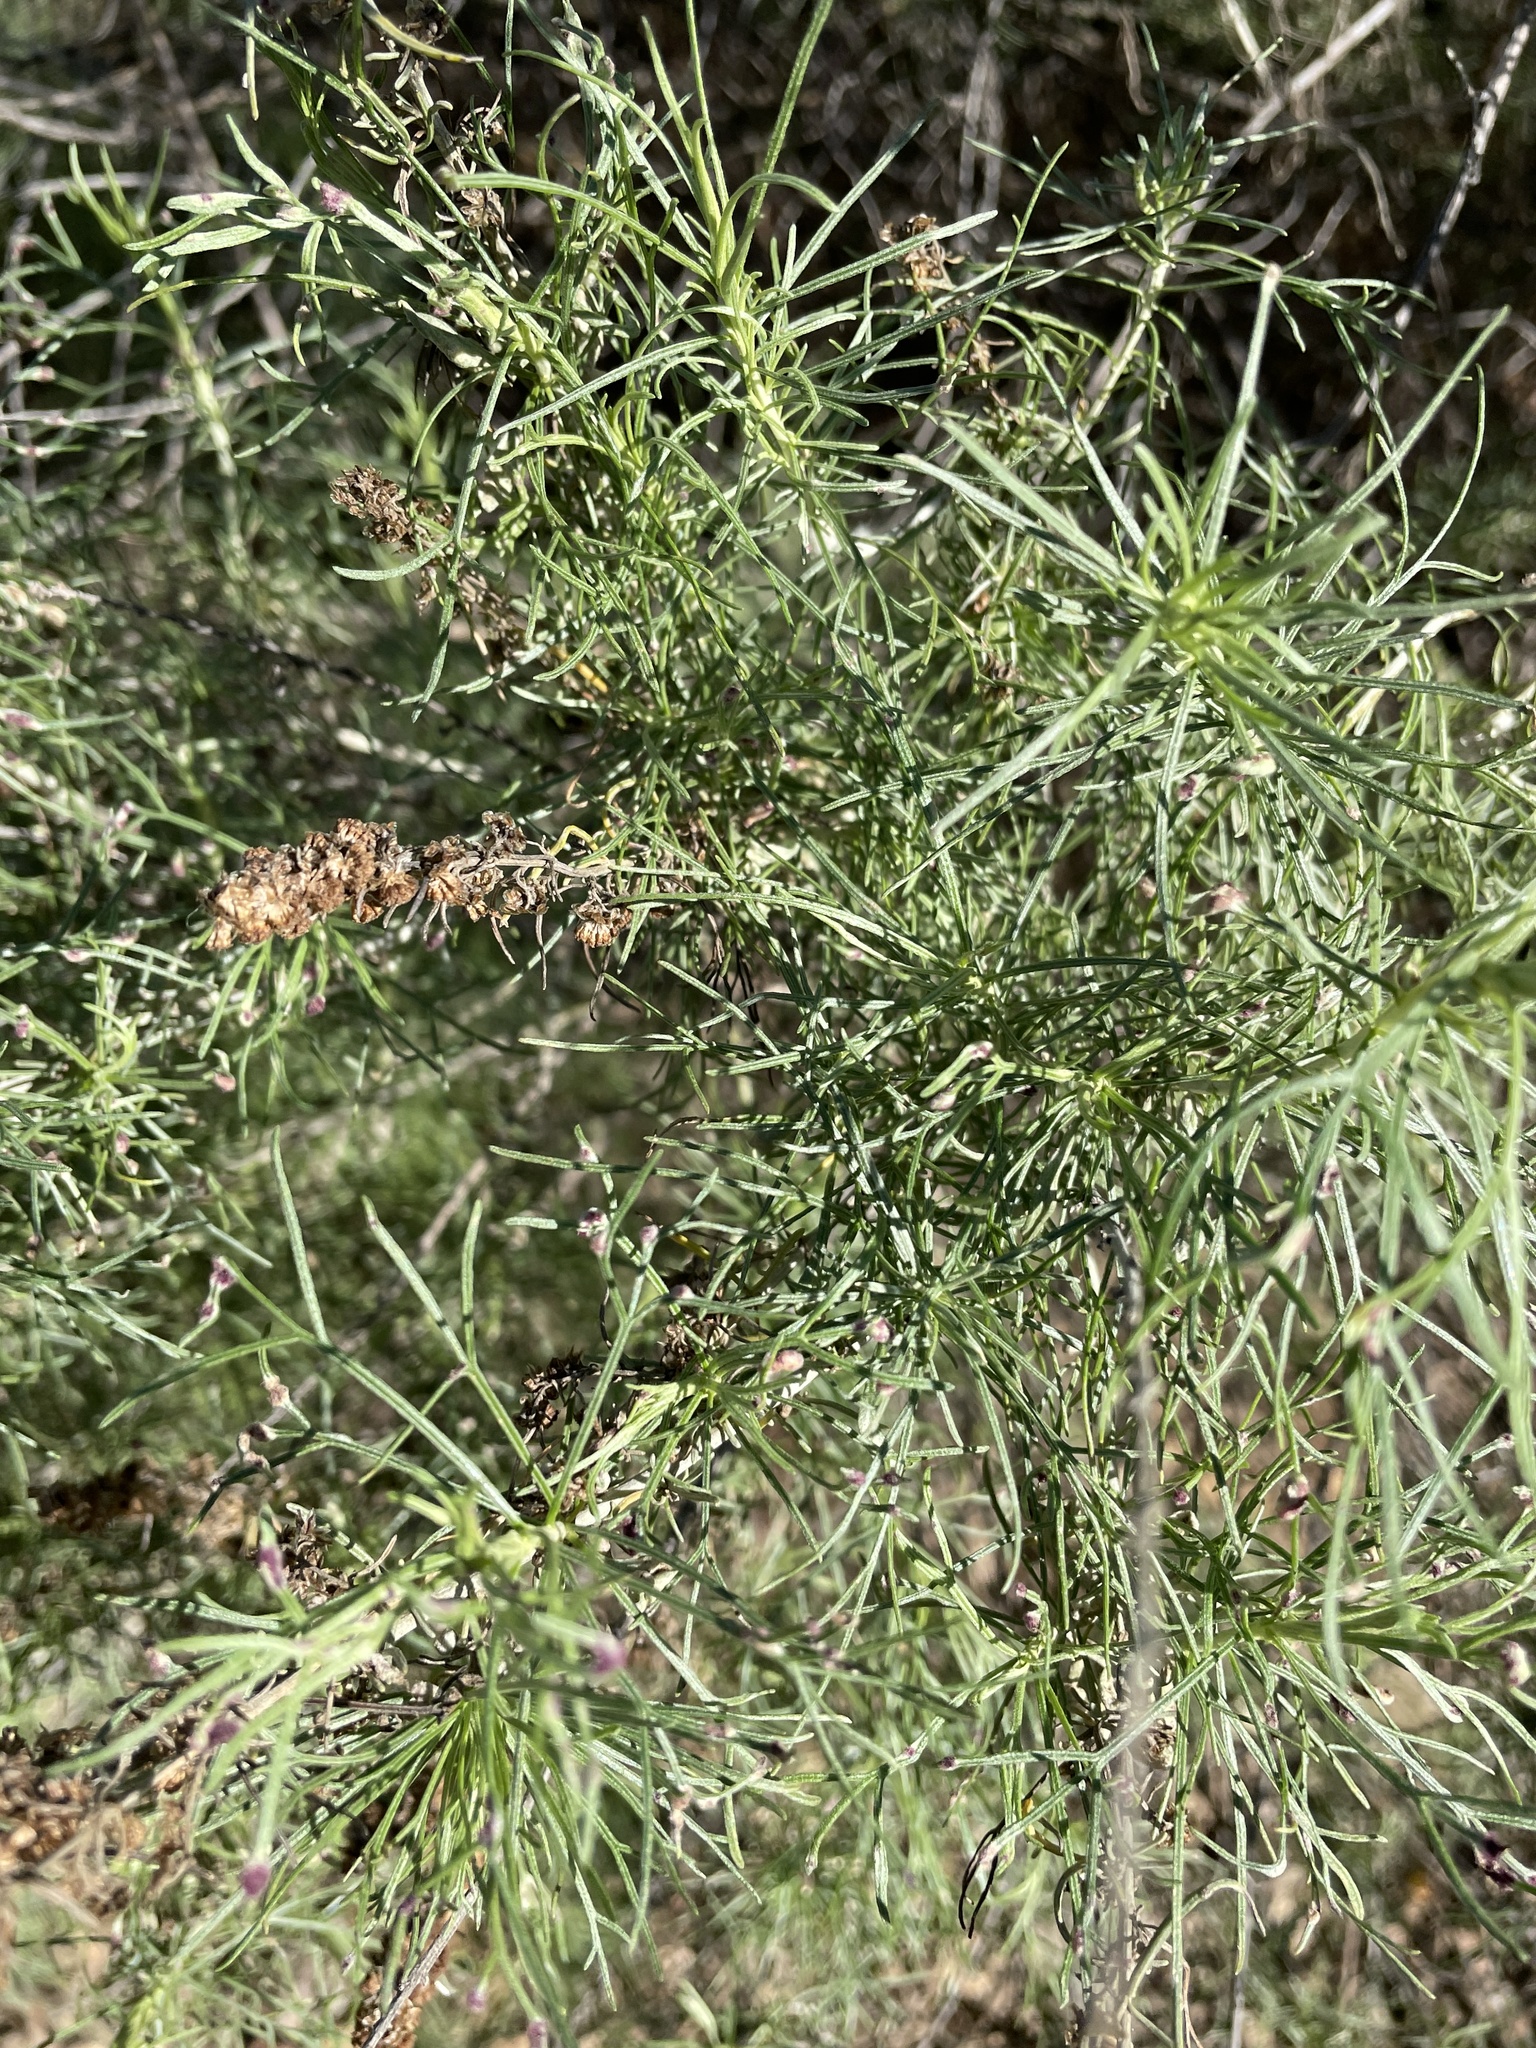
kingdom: Plantae
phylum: Tracheophyta
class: Magnoliopsida
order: Asterales
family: Asteraceae
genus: Artemisia
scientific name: Artemisia californica
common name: California sagebrush
